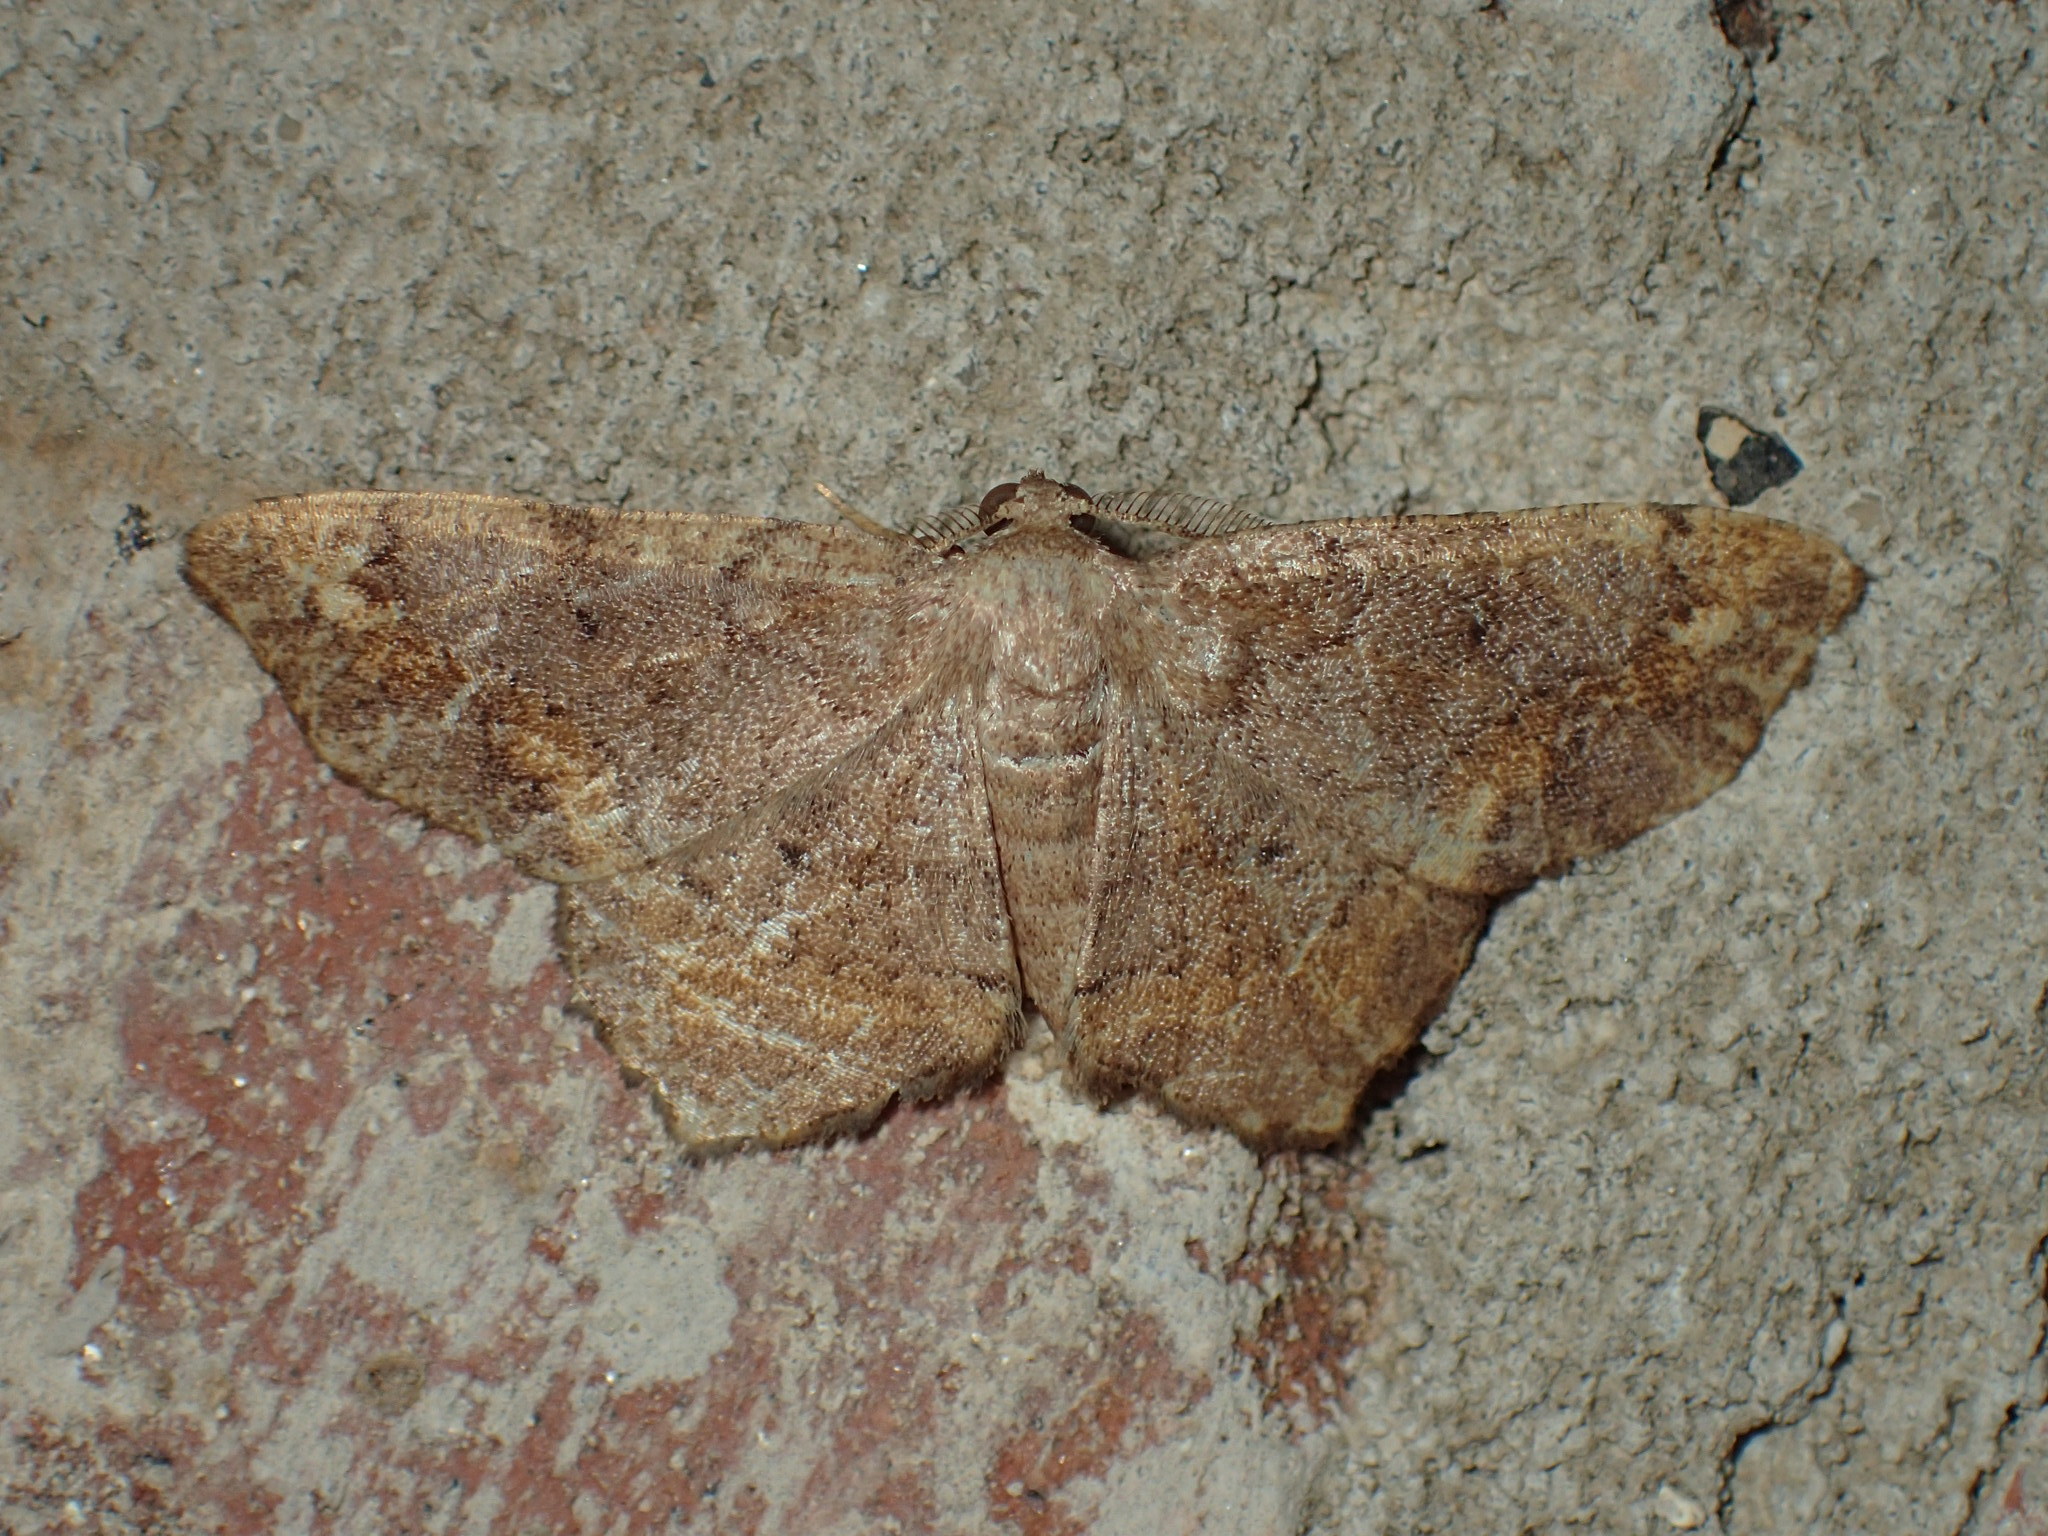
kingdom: Animalia
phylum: Arthropoda
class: Insecta
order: Lepidoptera
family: Geometridae
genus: Hypagyrtis
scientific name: Hypagyrtis
